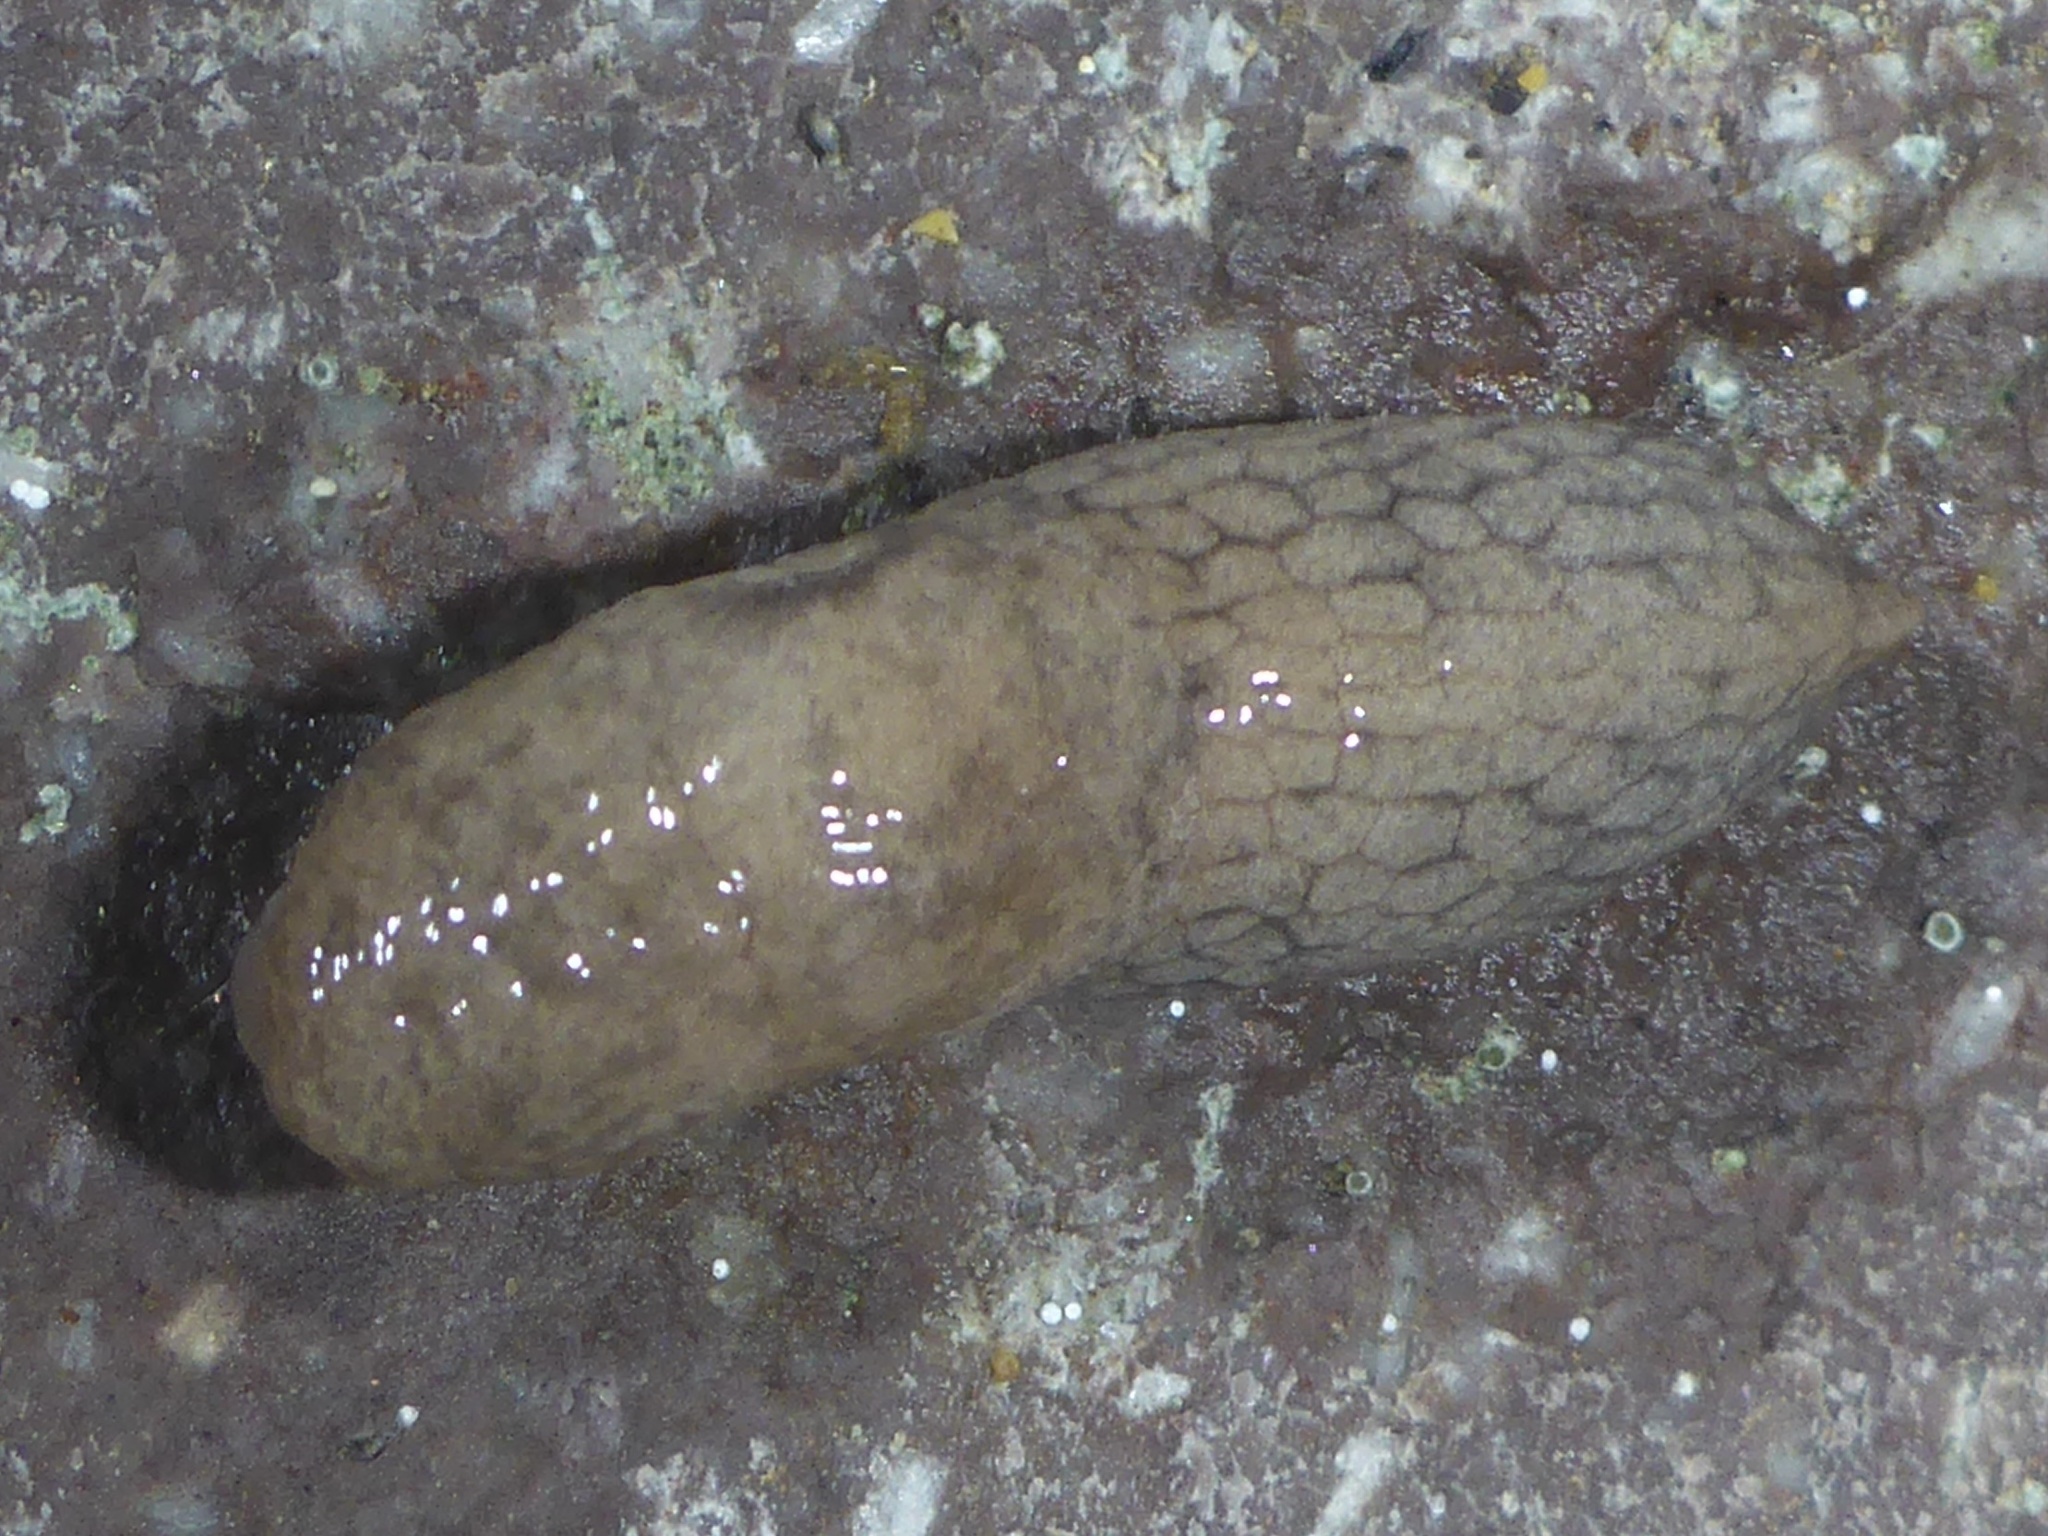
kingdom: Animalia
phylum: Mollusca
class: Gastropoda
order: Stylommatophora
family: Agriolimacidae
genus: Deroceras
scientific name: Deroceras reticulatum
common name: Gray field slug
